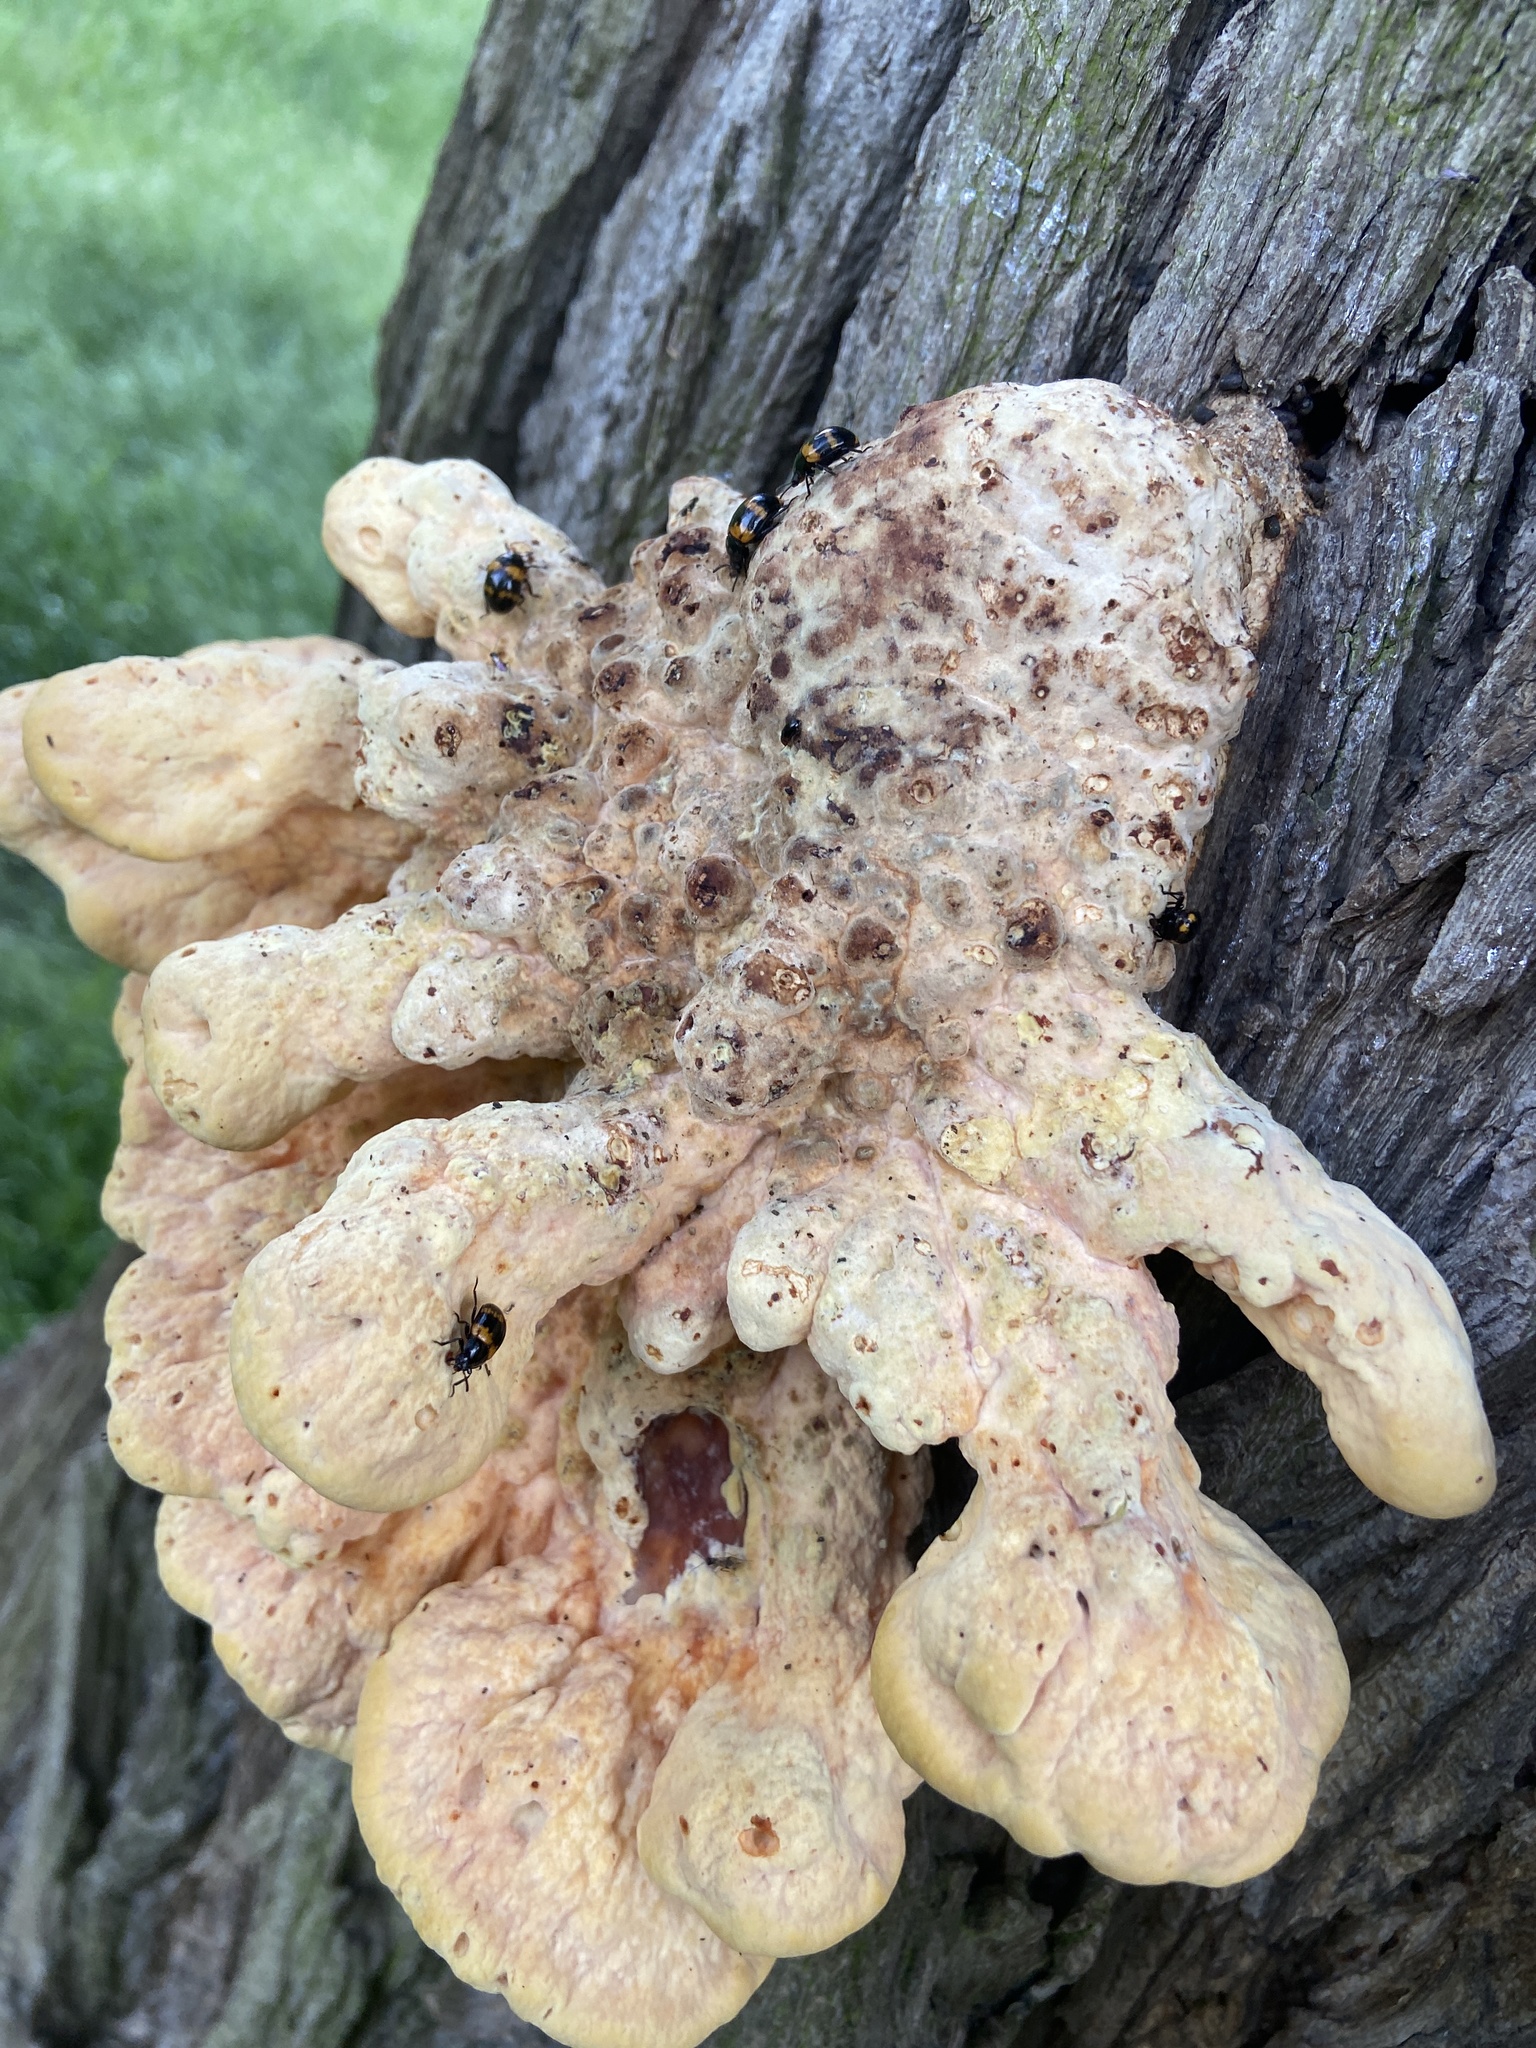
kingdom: Fungi
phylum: Basidiomycota
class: Agaricomycetes
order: Polyporales
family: Laetiporaceae
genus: Laetiporus
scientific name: Laetiporus sulphureus
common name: Chicken of the woods
